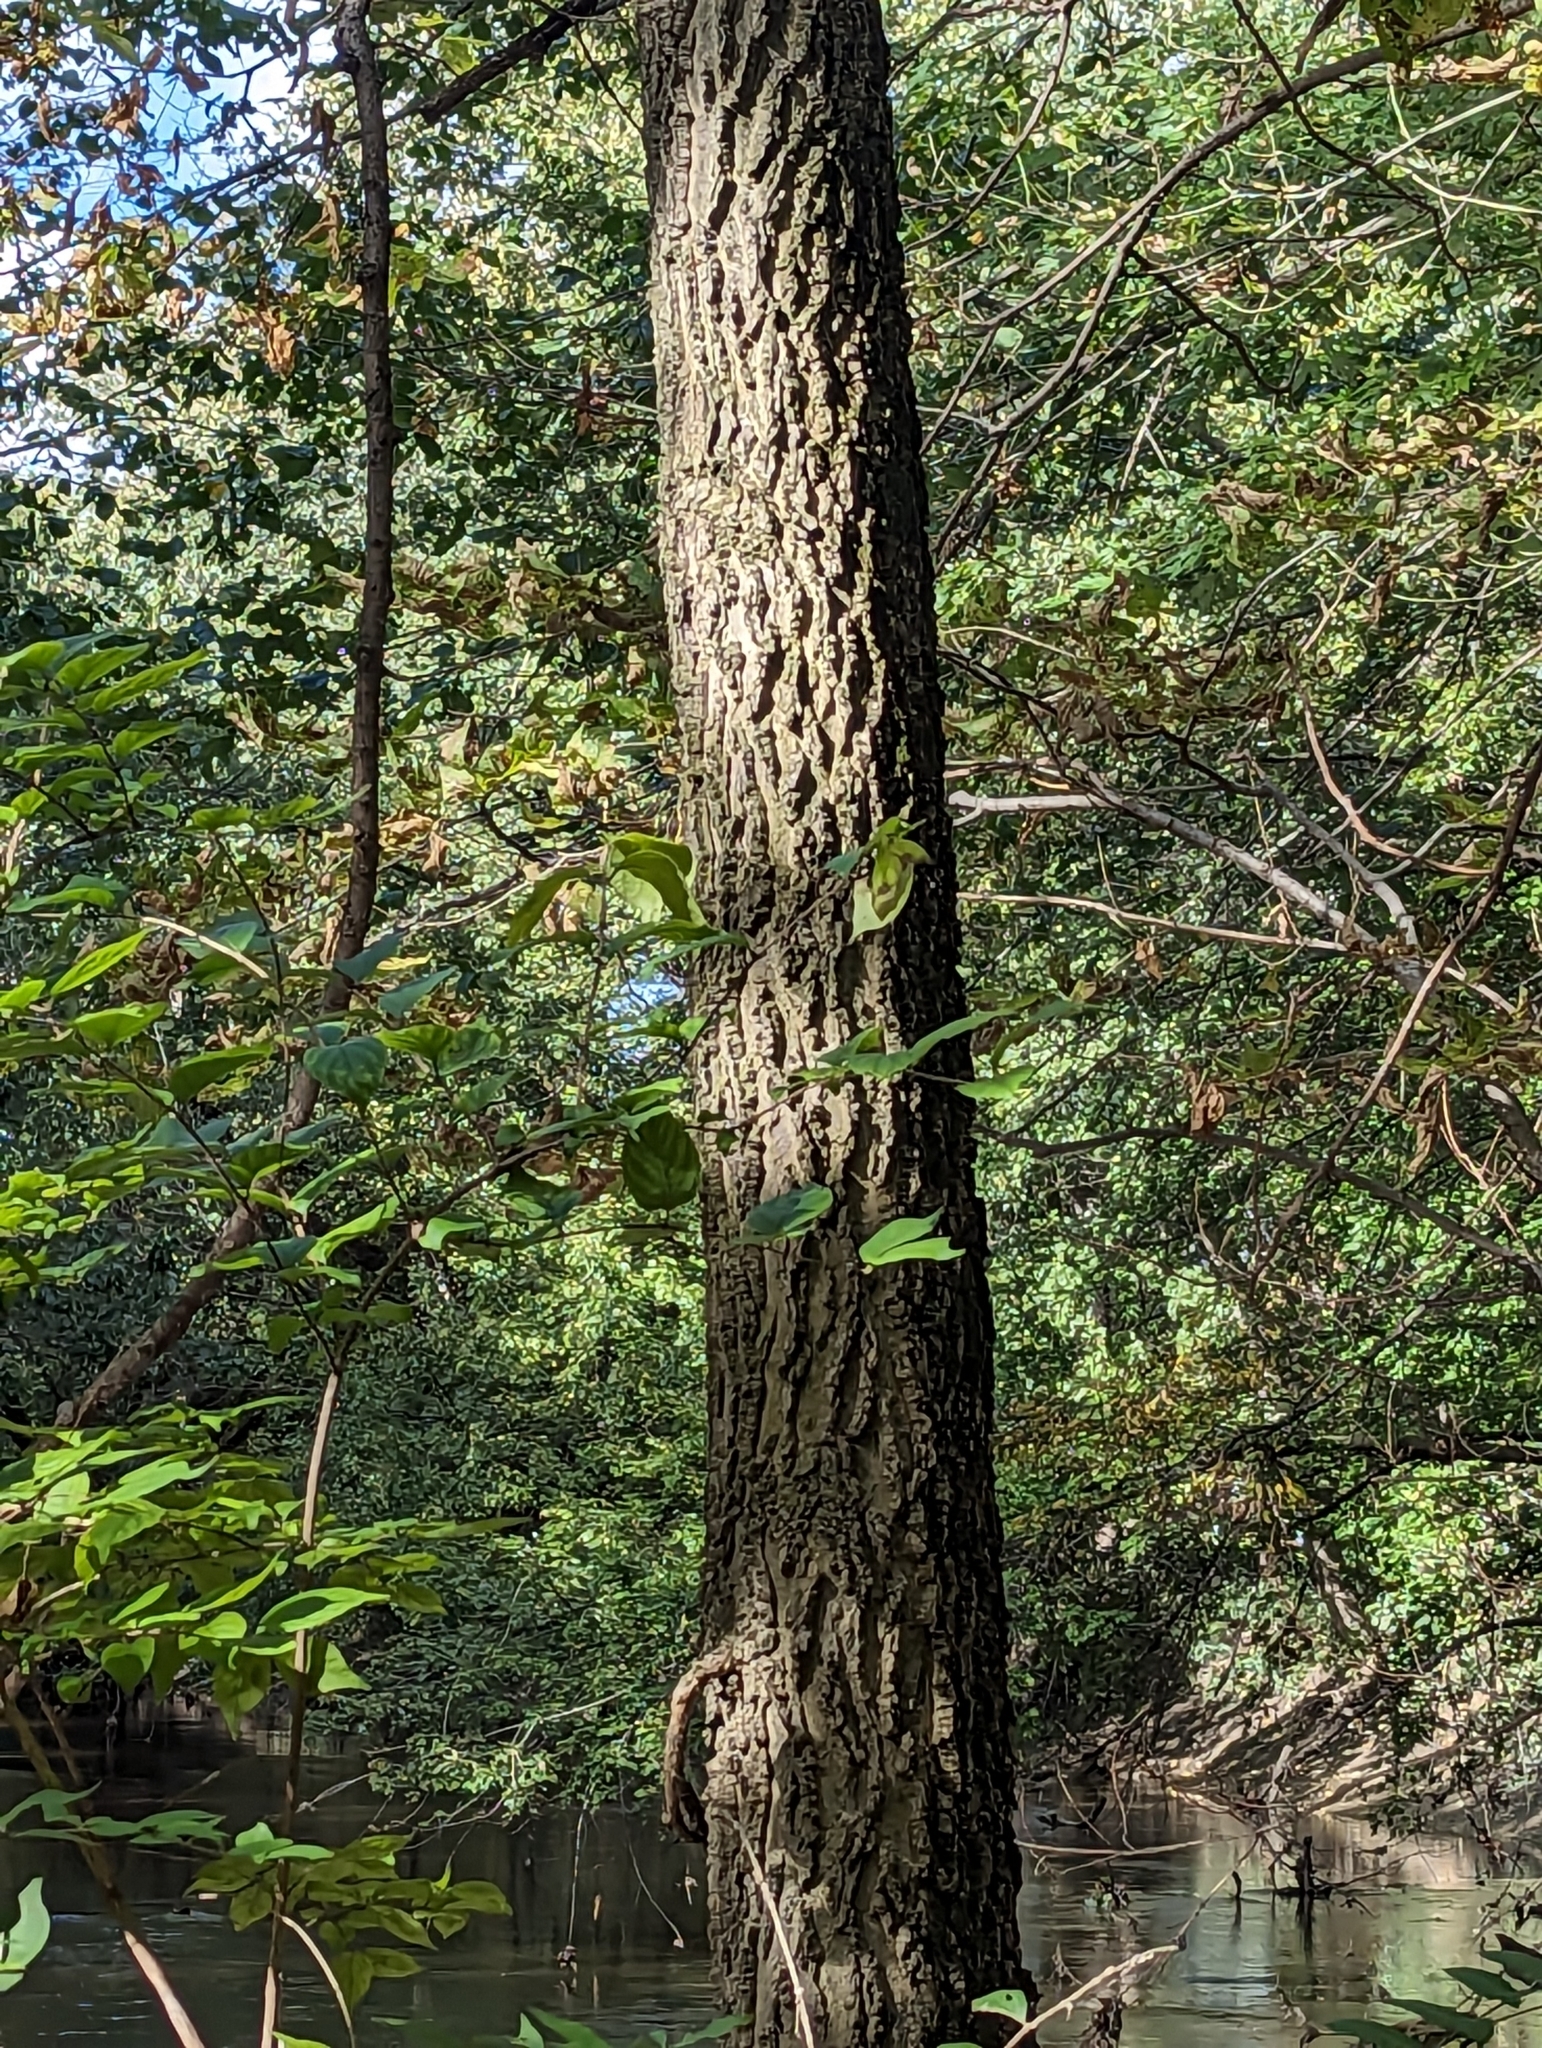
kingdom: Plantae
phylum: Tracheophyta
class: Magnoliopsida
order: Rosales
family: Cannabaceae
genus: Celtis
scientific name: Celtis occidentalis
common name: Common hackberry
